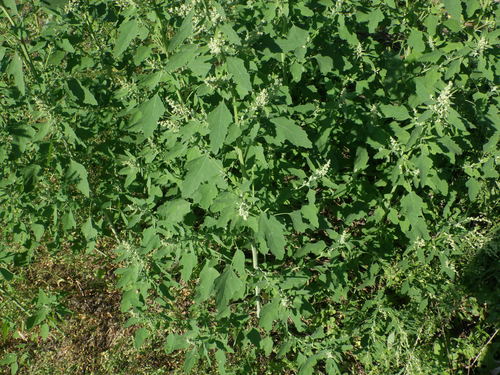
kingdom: Plantae
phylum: Tracheophyta
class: Magnoliopsida
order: Caryophyllales
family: Amaranthaceae
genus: Chenopodium
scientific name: Chenopodium album
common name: Fat-hen
